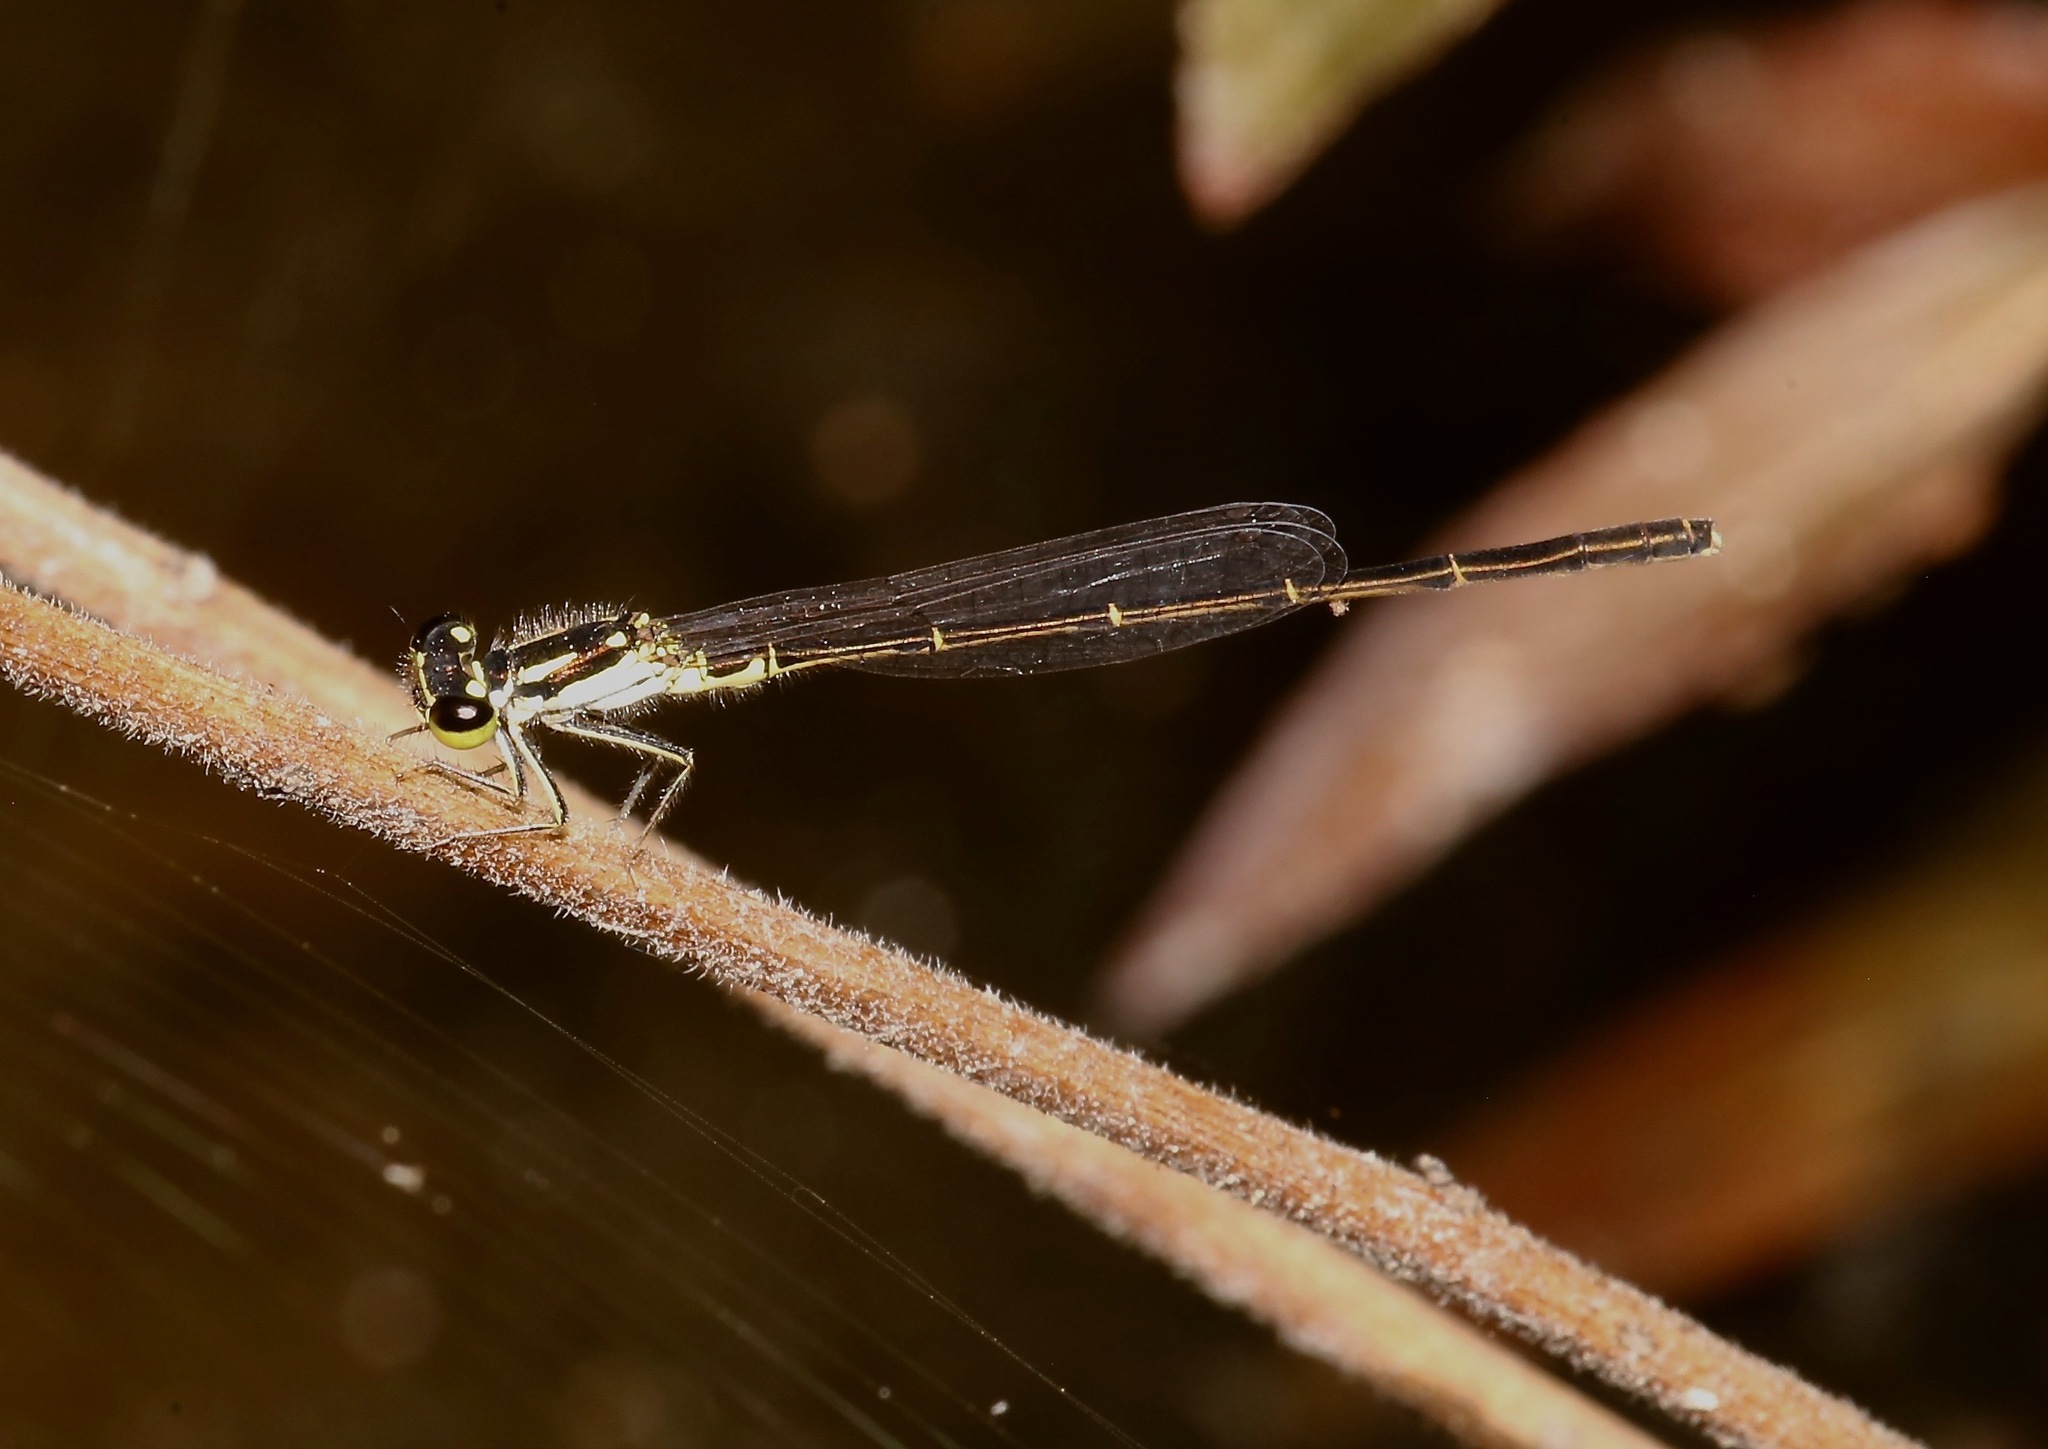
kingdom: Animalia
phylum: Arthropoda
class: Insecta
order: Odonata
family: Coenagrionidae
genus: Ischnura
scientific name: Ischnura posita
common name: Fragile forktail
